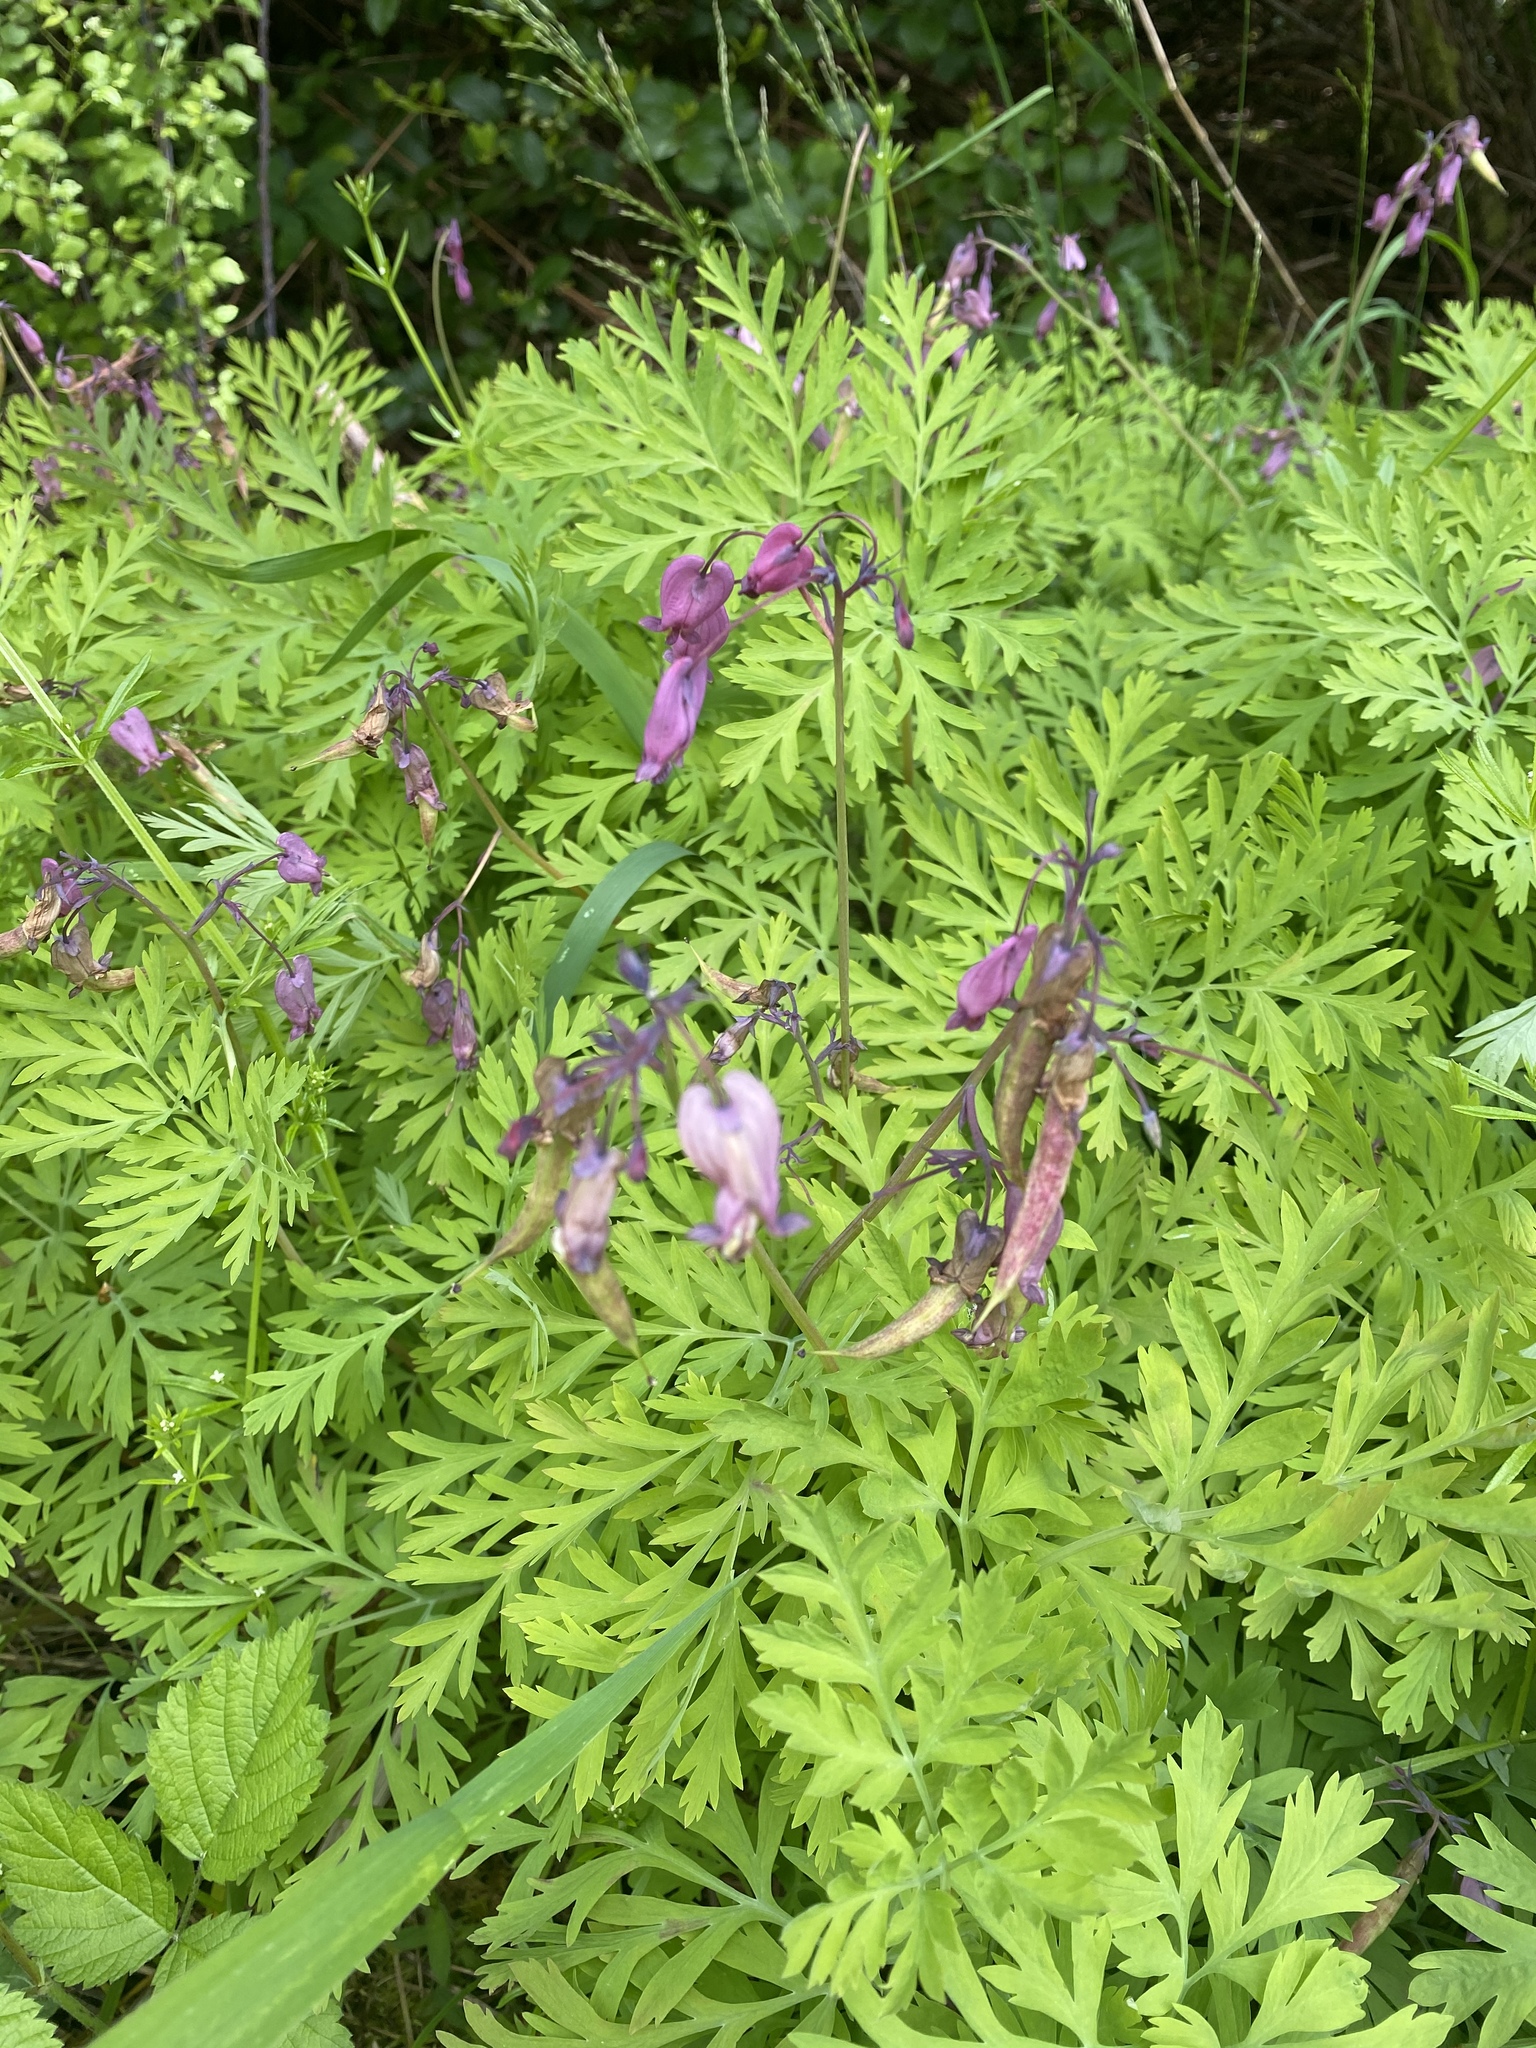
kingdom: Plantae
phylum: Tracheophyta
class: Magnoliopsida
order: Ranunculales
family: Papaveraceae
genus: Dicentra
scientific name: Dicentra formosa
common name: Bleeding-heart
